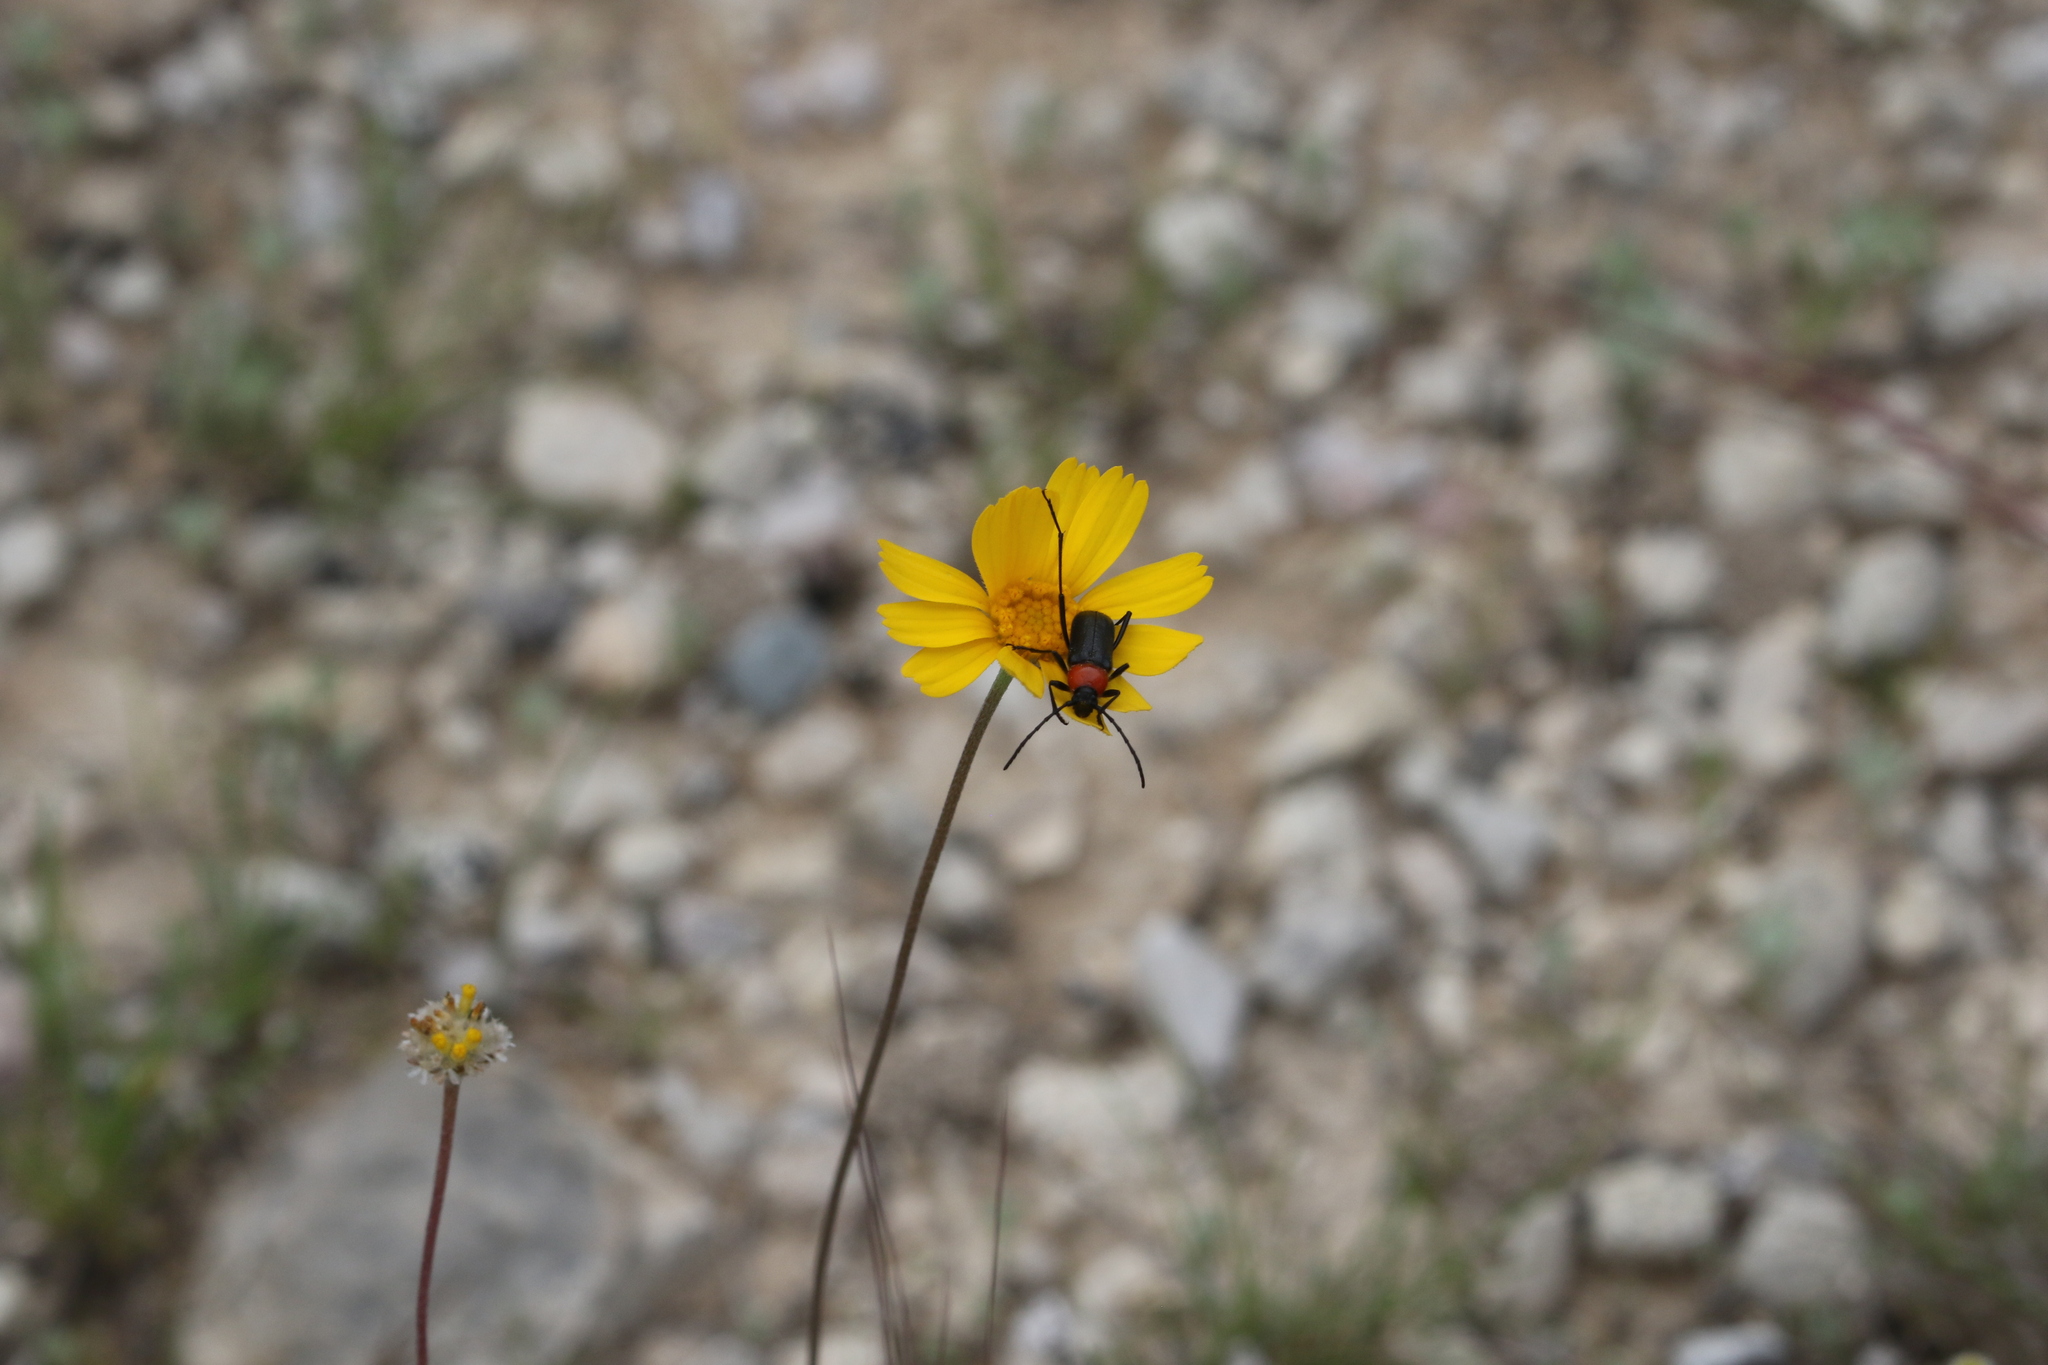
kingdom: Animalia
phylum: Arthropoda
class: Insecta
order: Coleoptera
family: Cerambycidae
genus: Batyle
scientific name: Batyle ignicollis
